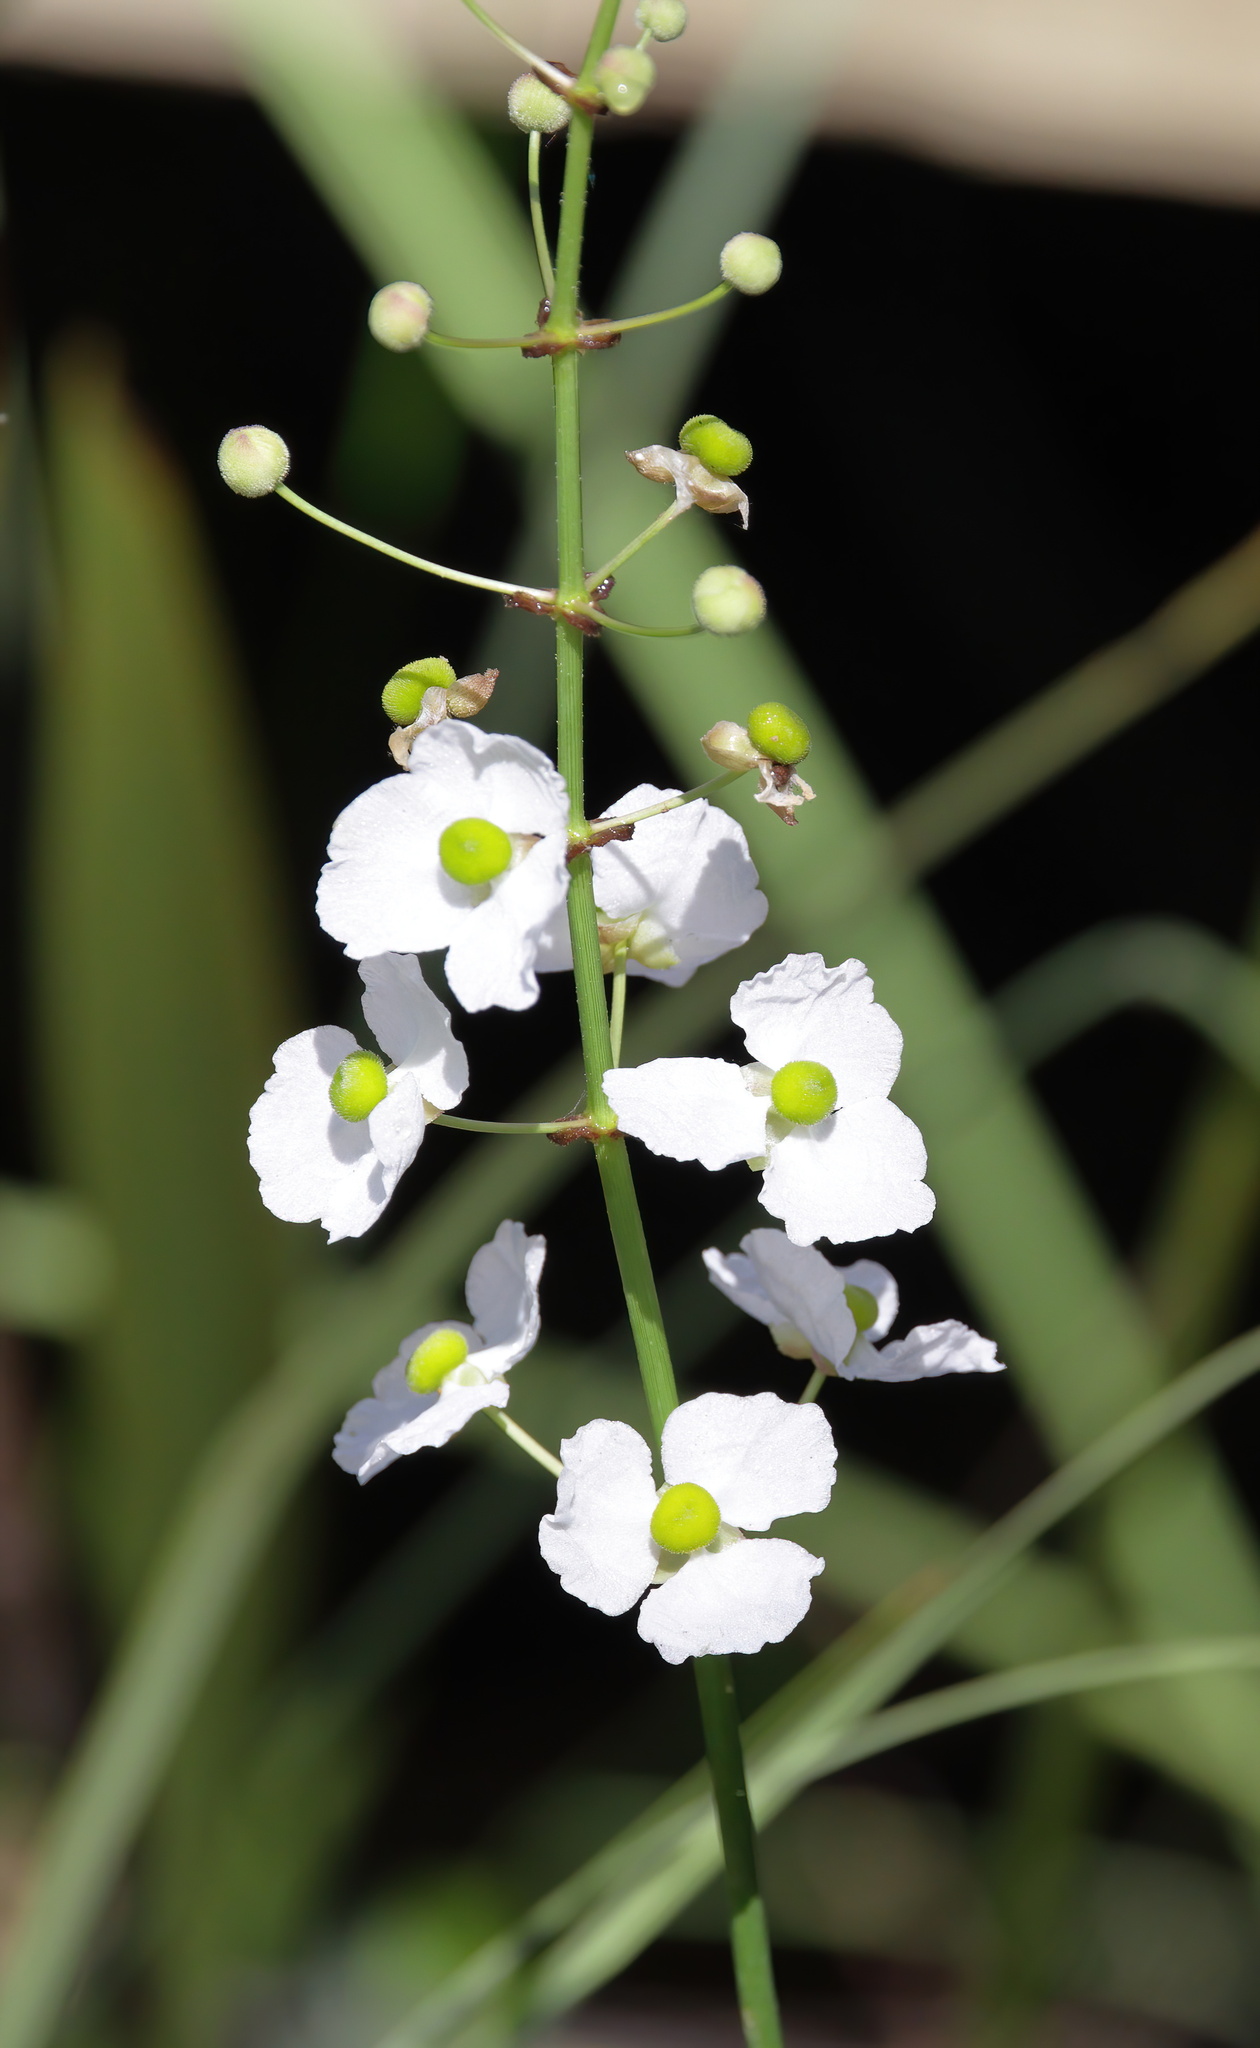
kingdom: Plantae
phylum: Tracheophyta
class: Liliopsida
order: Alismatales
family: Alismataceae
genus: Sagittaria
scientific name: Sagittaria lancifolia
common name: Lance-leaf arrowhead
